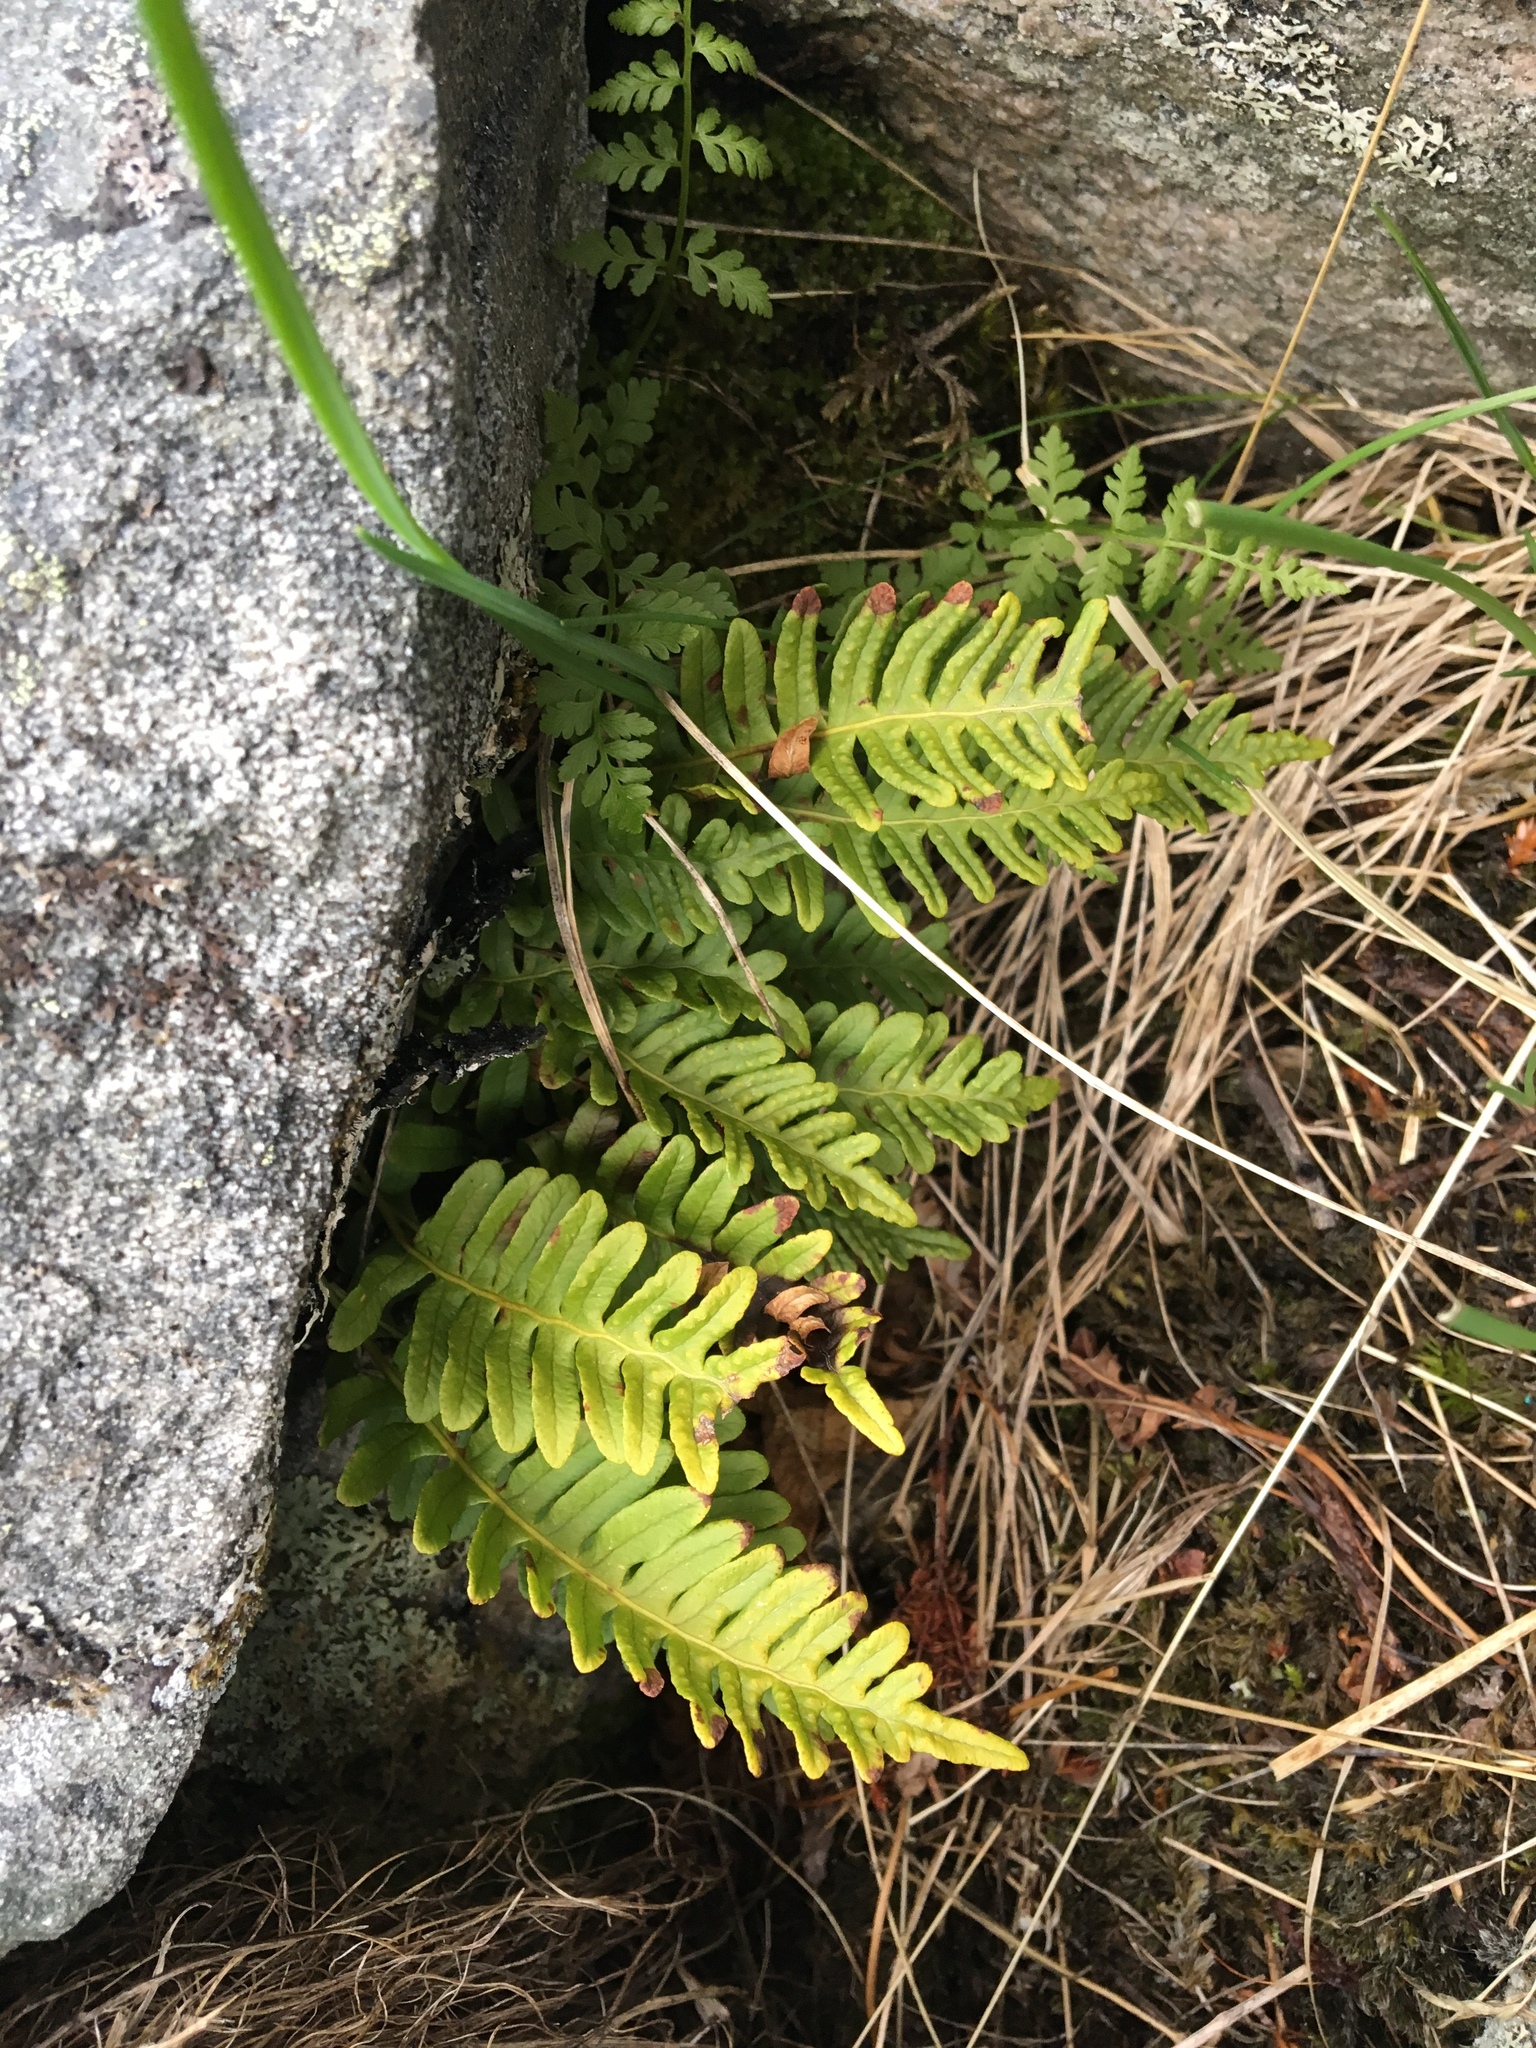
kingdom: Plantae
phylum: Tracheophyta
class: Polypodiopsida
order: Polypodiales
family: Polypodiaceae
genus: Polypodium
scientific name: Polypodium vulgare
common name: Common polypody
